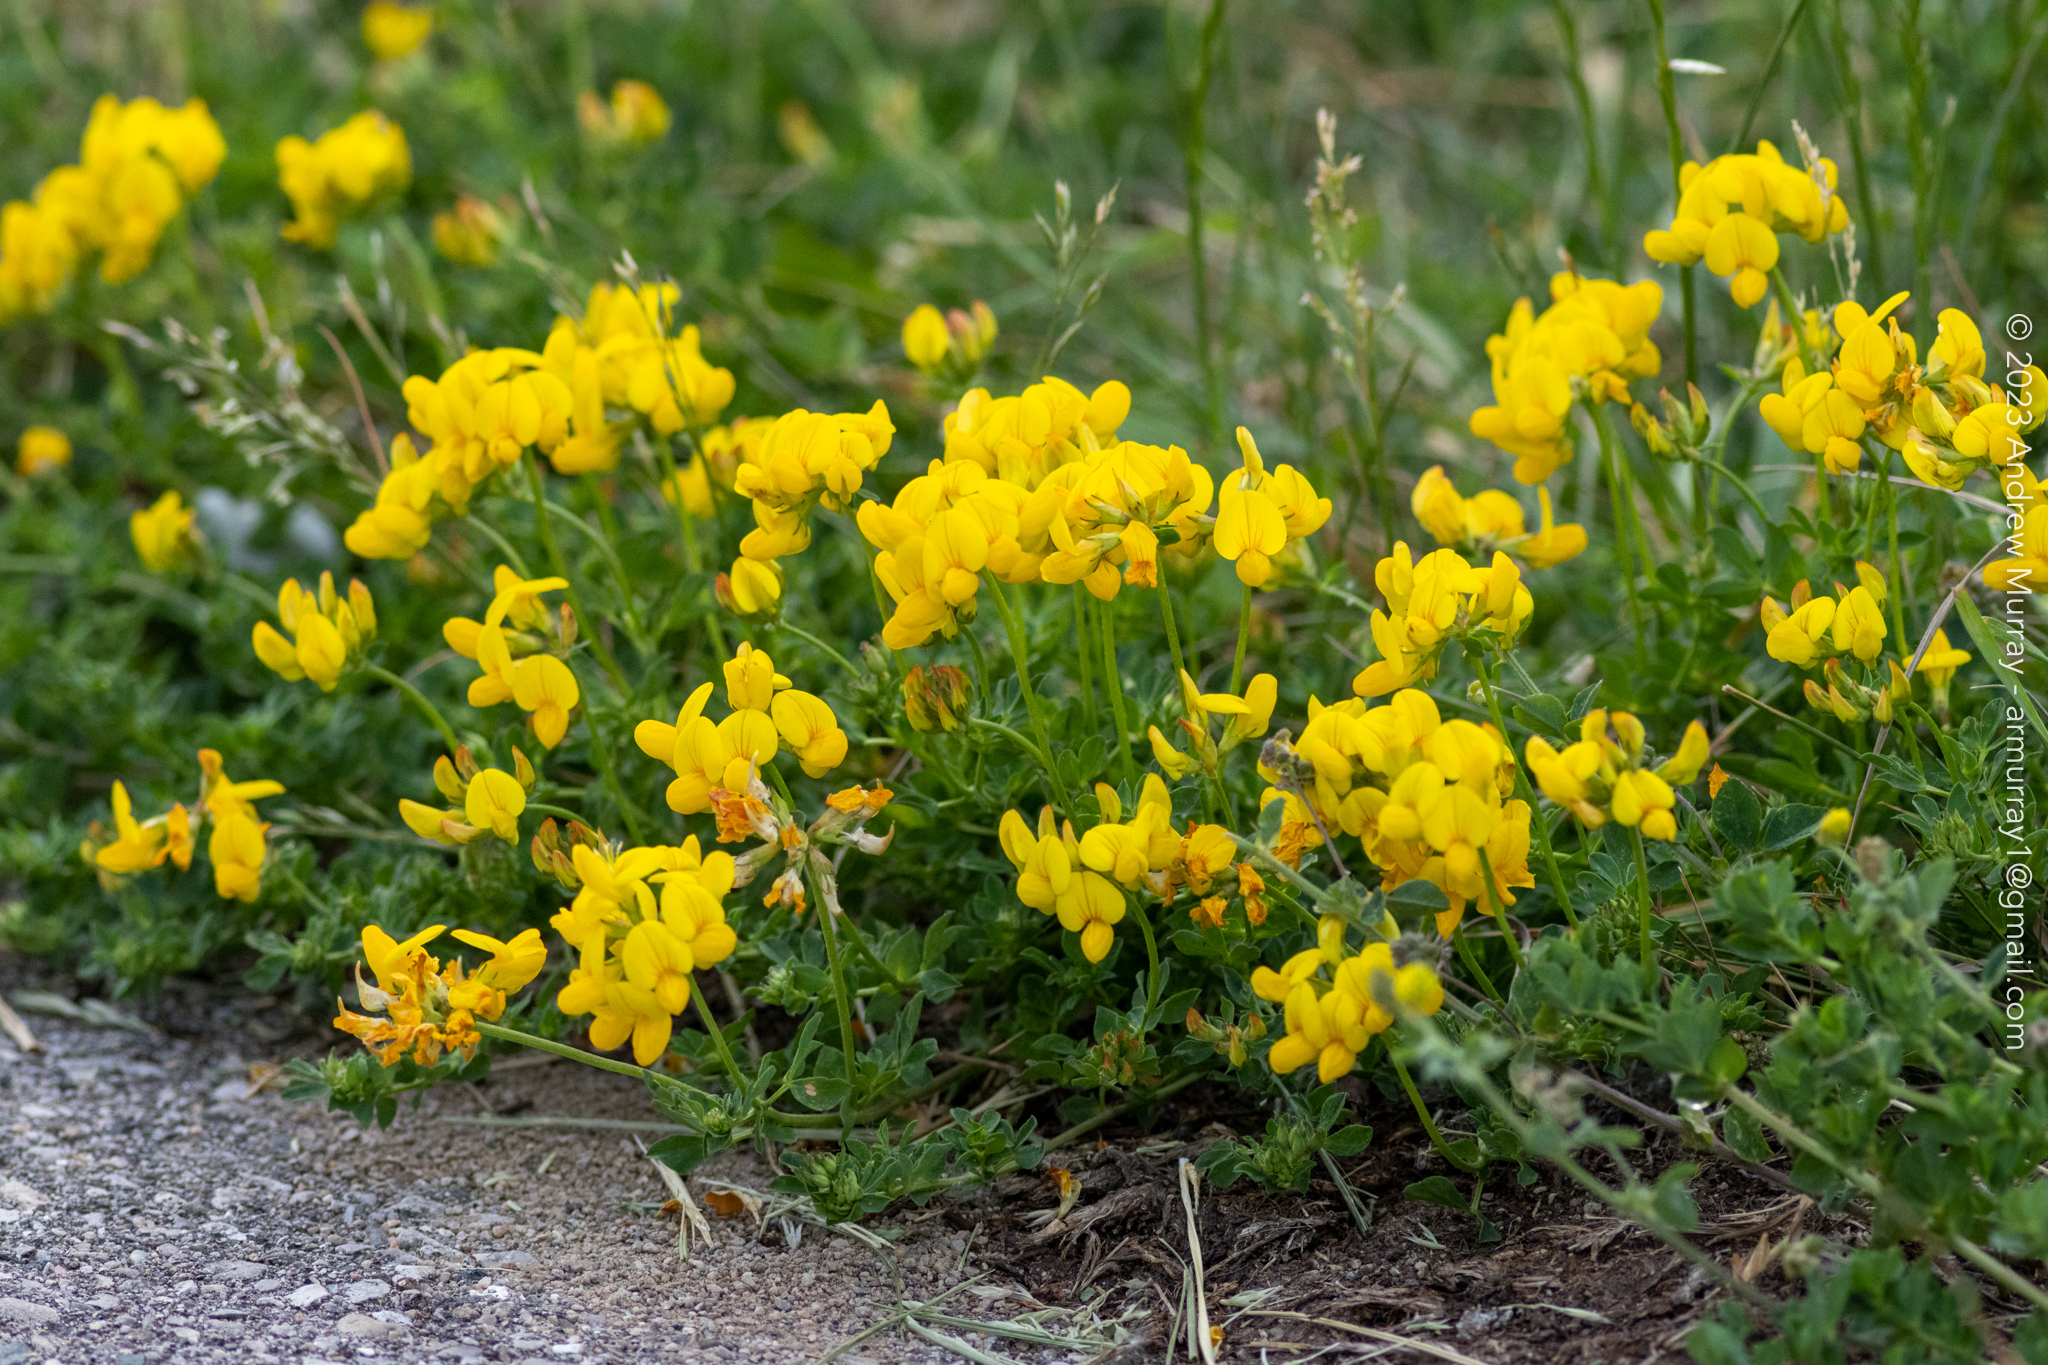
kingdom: Plantae
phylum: Tracheophyta
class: Magnoliopsida
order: Fabales
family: Fabaceae
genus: Lotus
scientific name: Lotus corniculatus
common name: Common bird's-foot-trefoil
